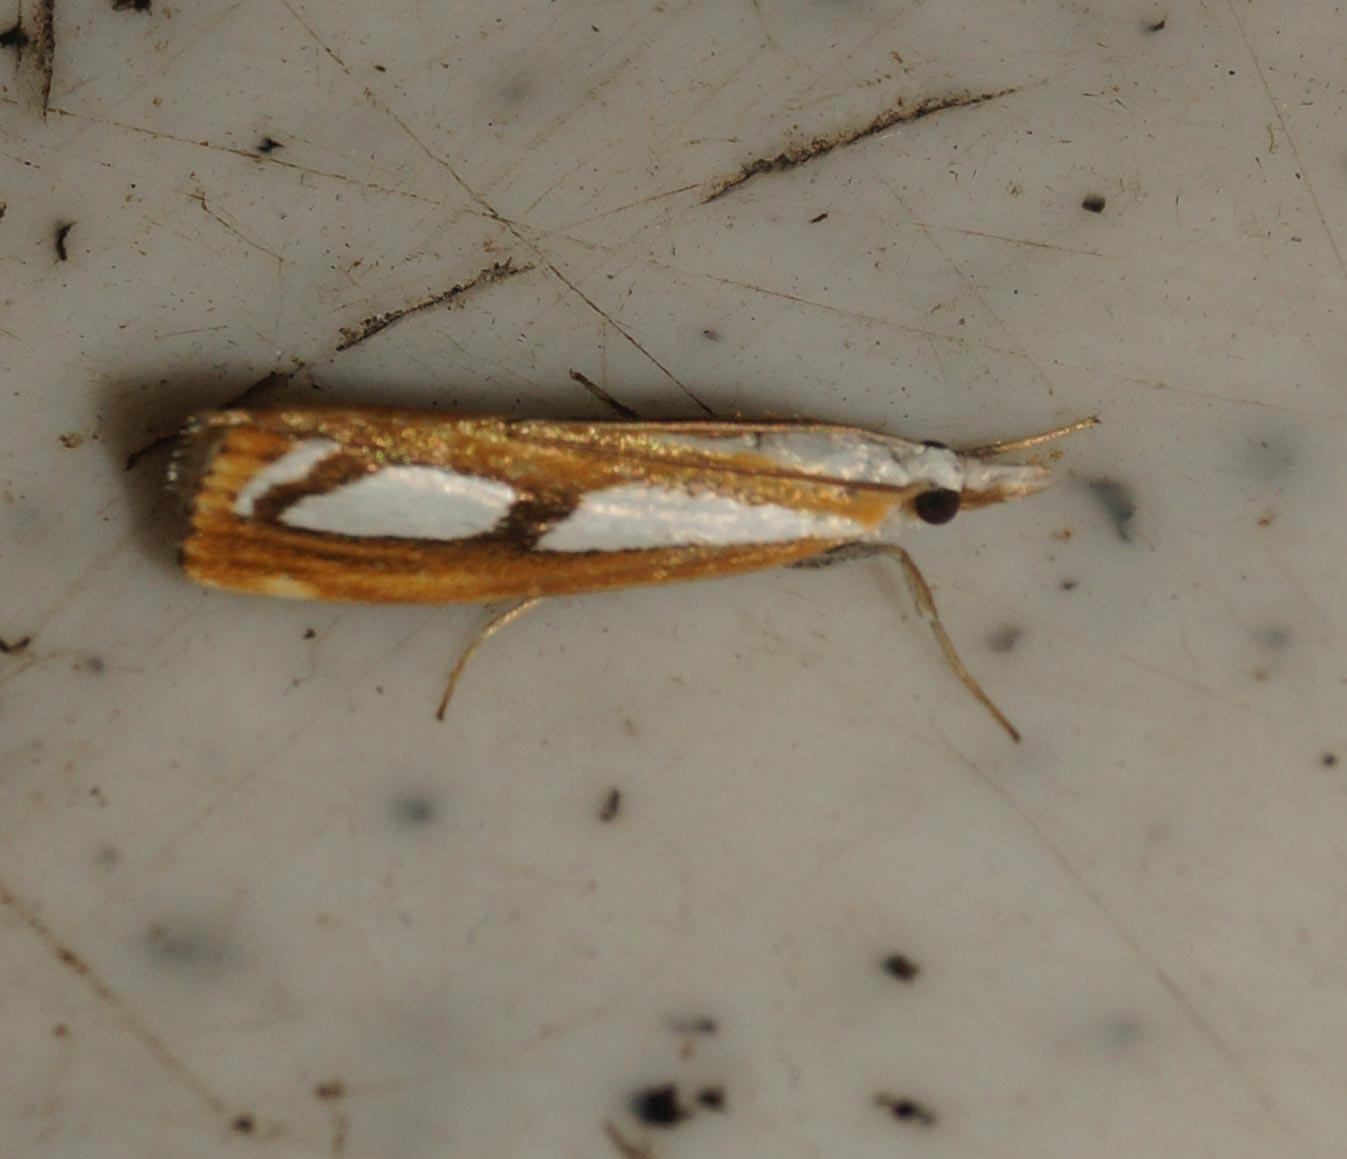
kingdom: Animalia
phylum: Arthropoda
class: Insecta
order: Lepidoptera
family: Crambidae
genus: Catoptria
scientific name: Catoptria
